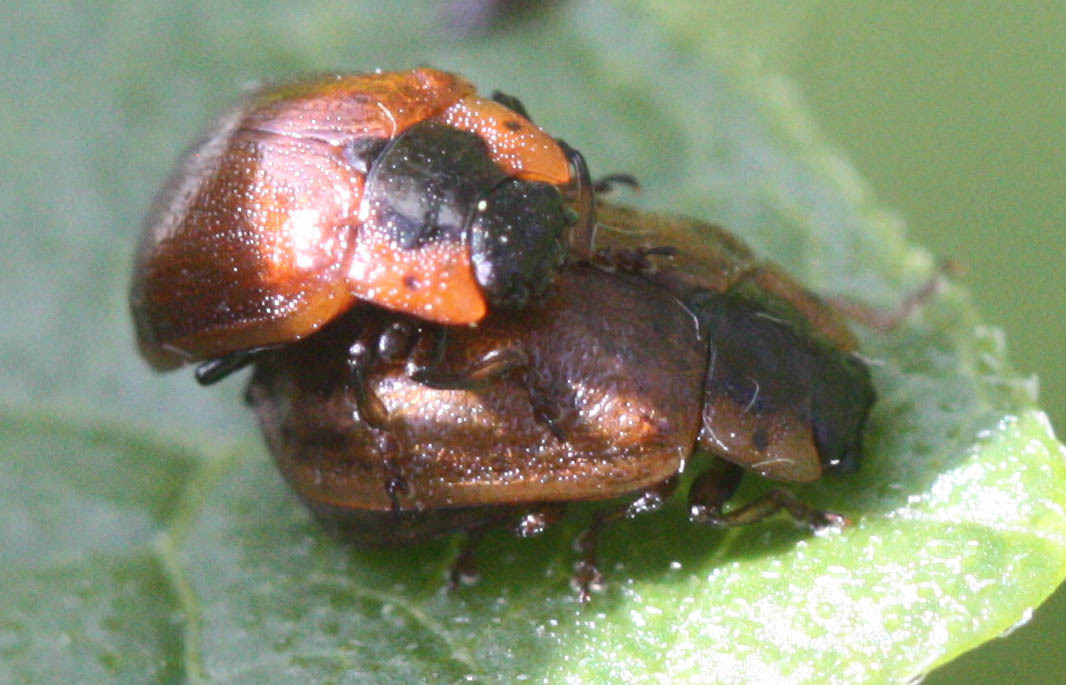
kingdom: Animalia
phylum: Arthropoda
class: Insecta
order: Coleoptera
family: Chrysomelidae
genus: Chrysomela
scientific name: Chrysomela schaefferi
